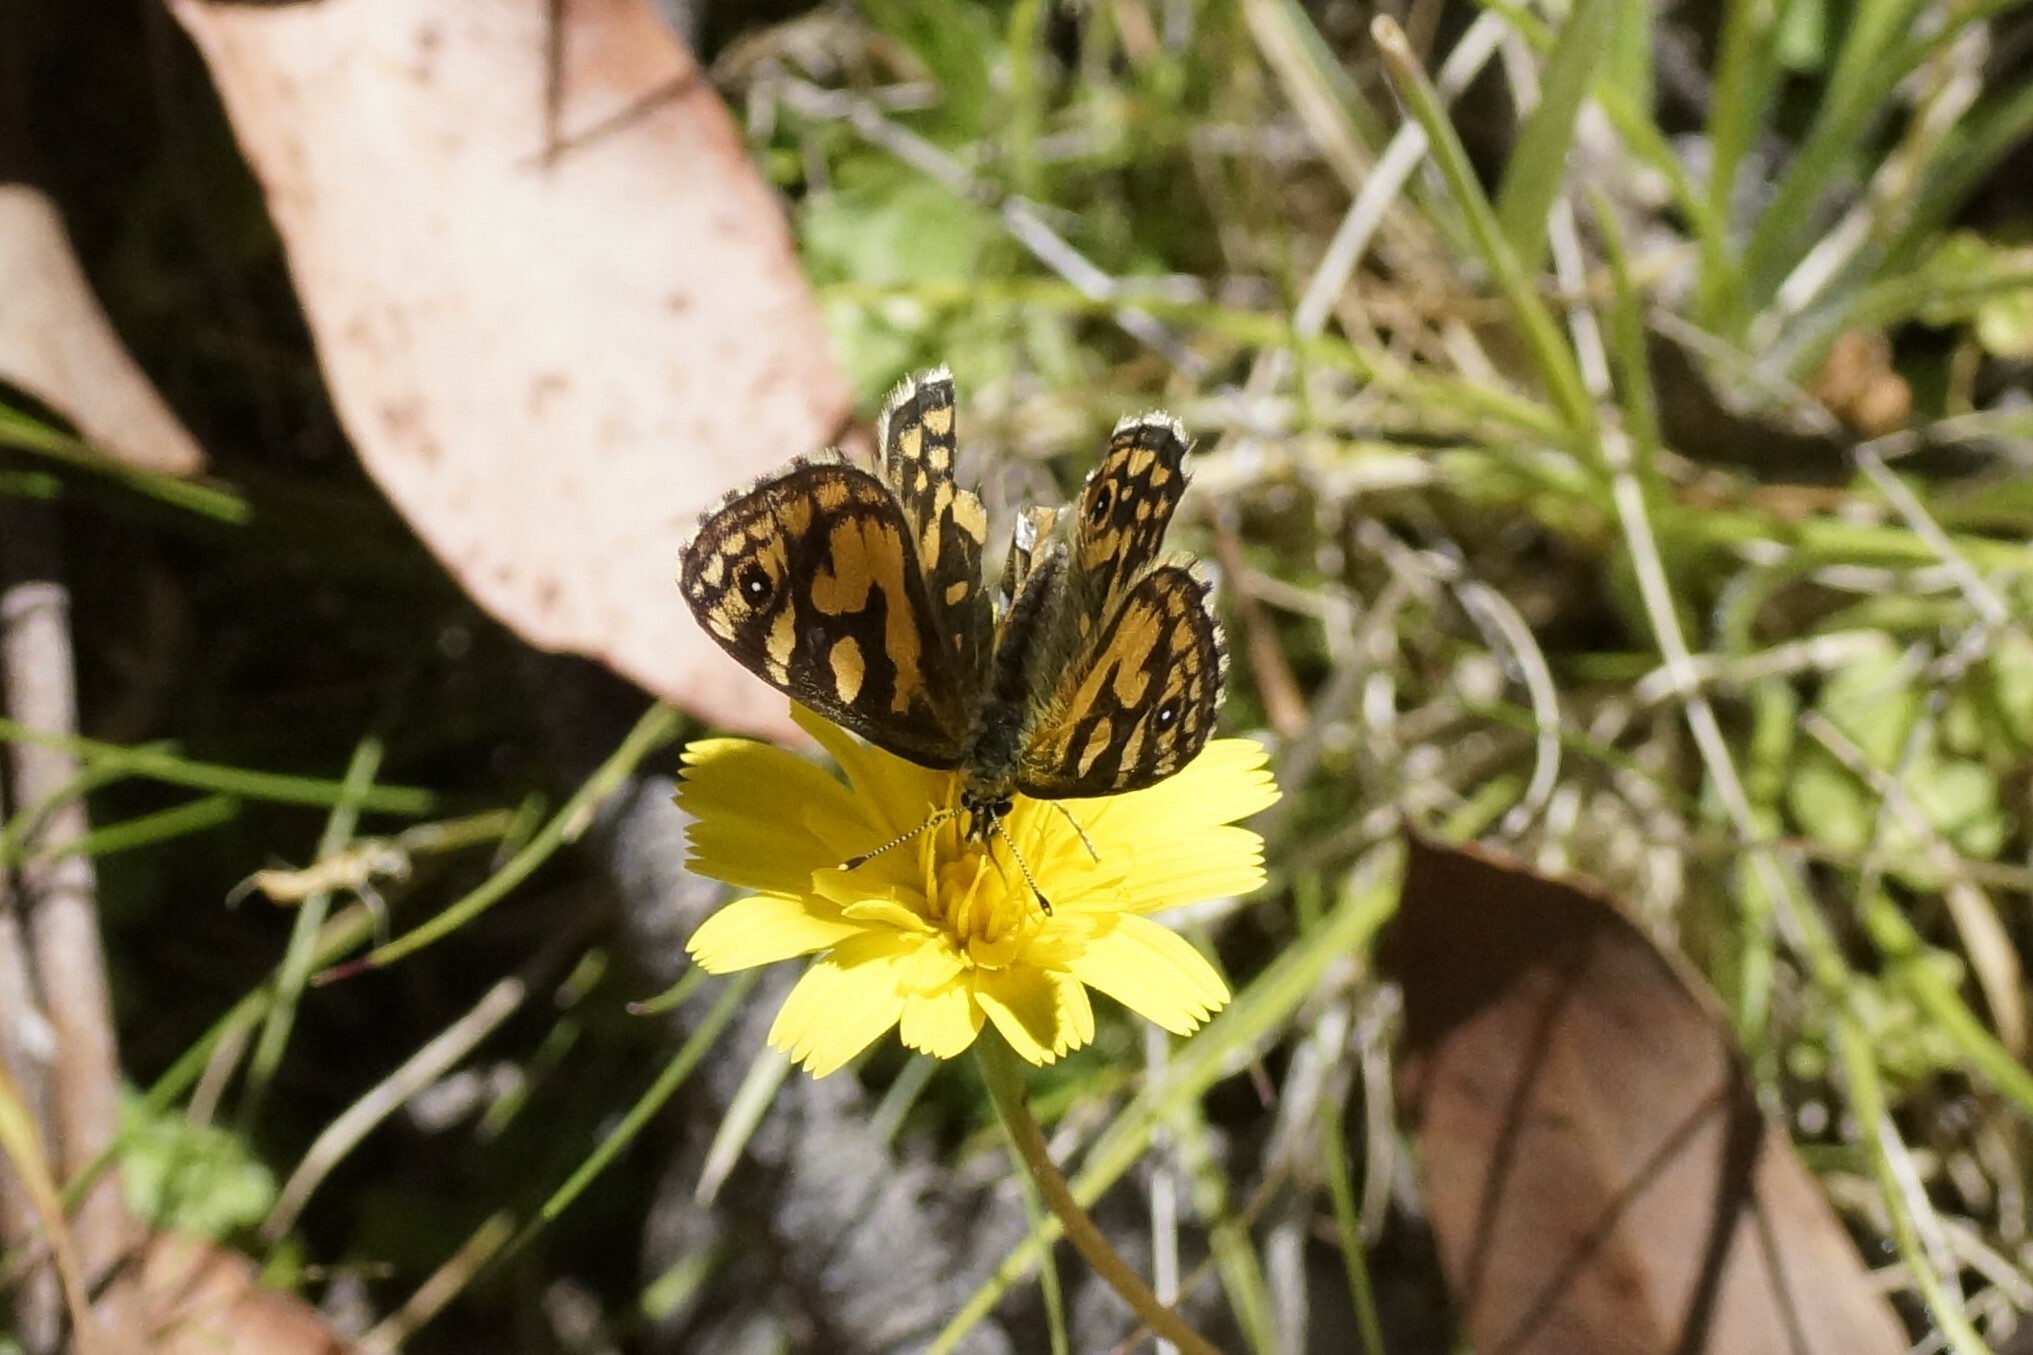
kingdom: Animalia
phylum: Arthropoda
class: Insecta
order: Lepidoptera
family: Nymphalidae
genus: Oreixenica
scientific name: Oreixenica lathoniella
